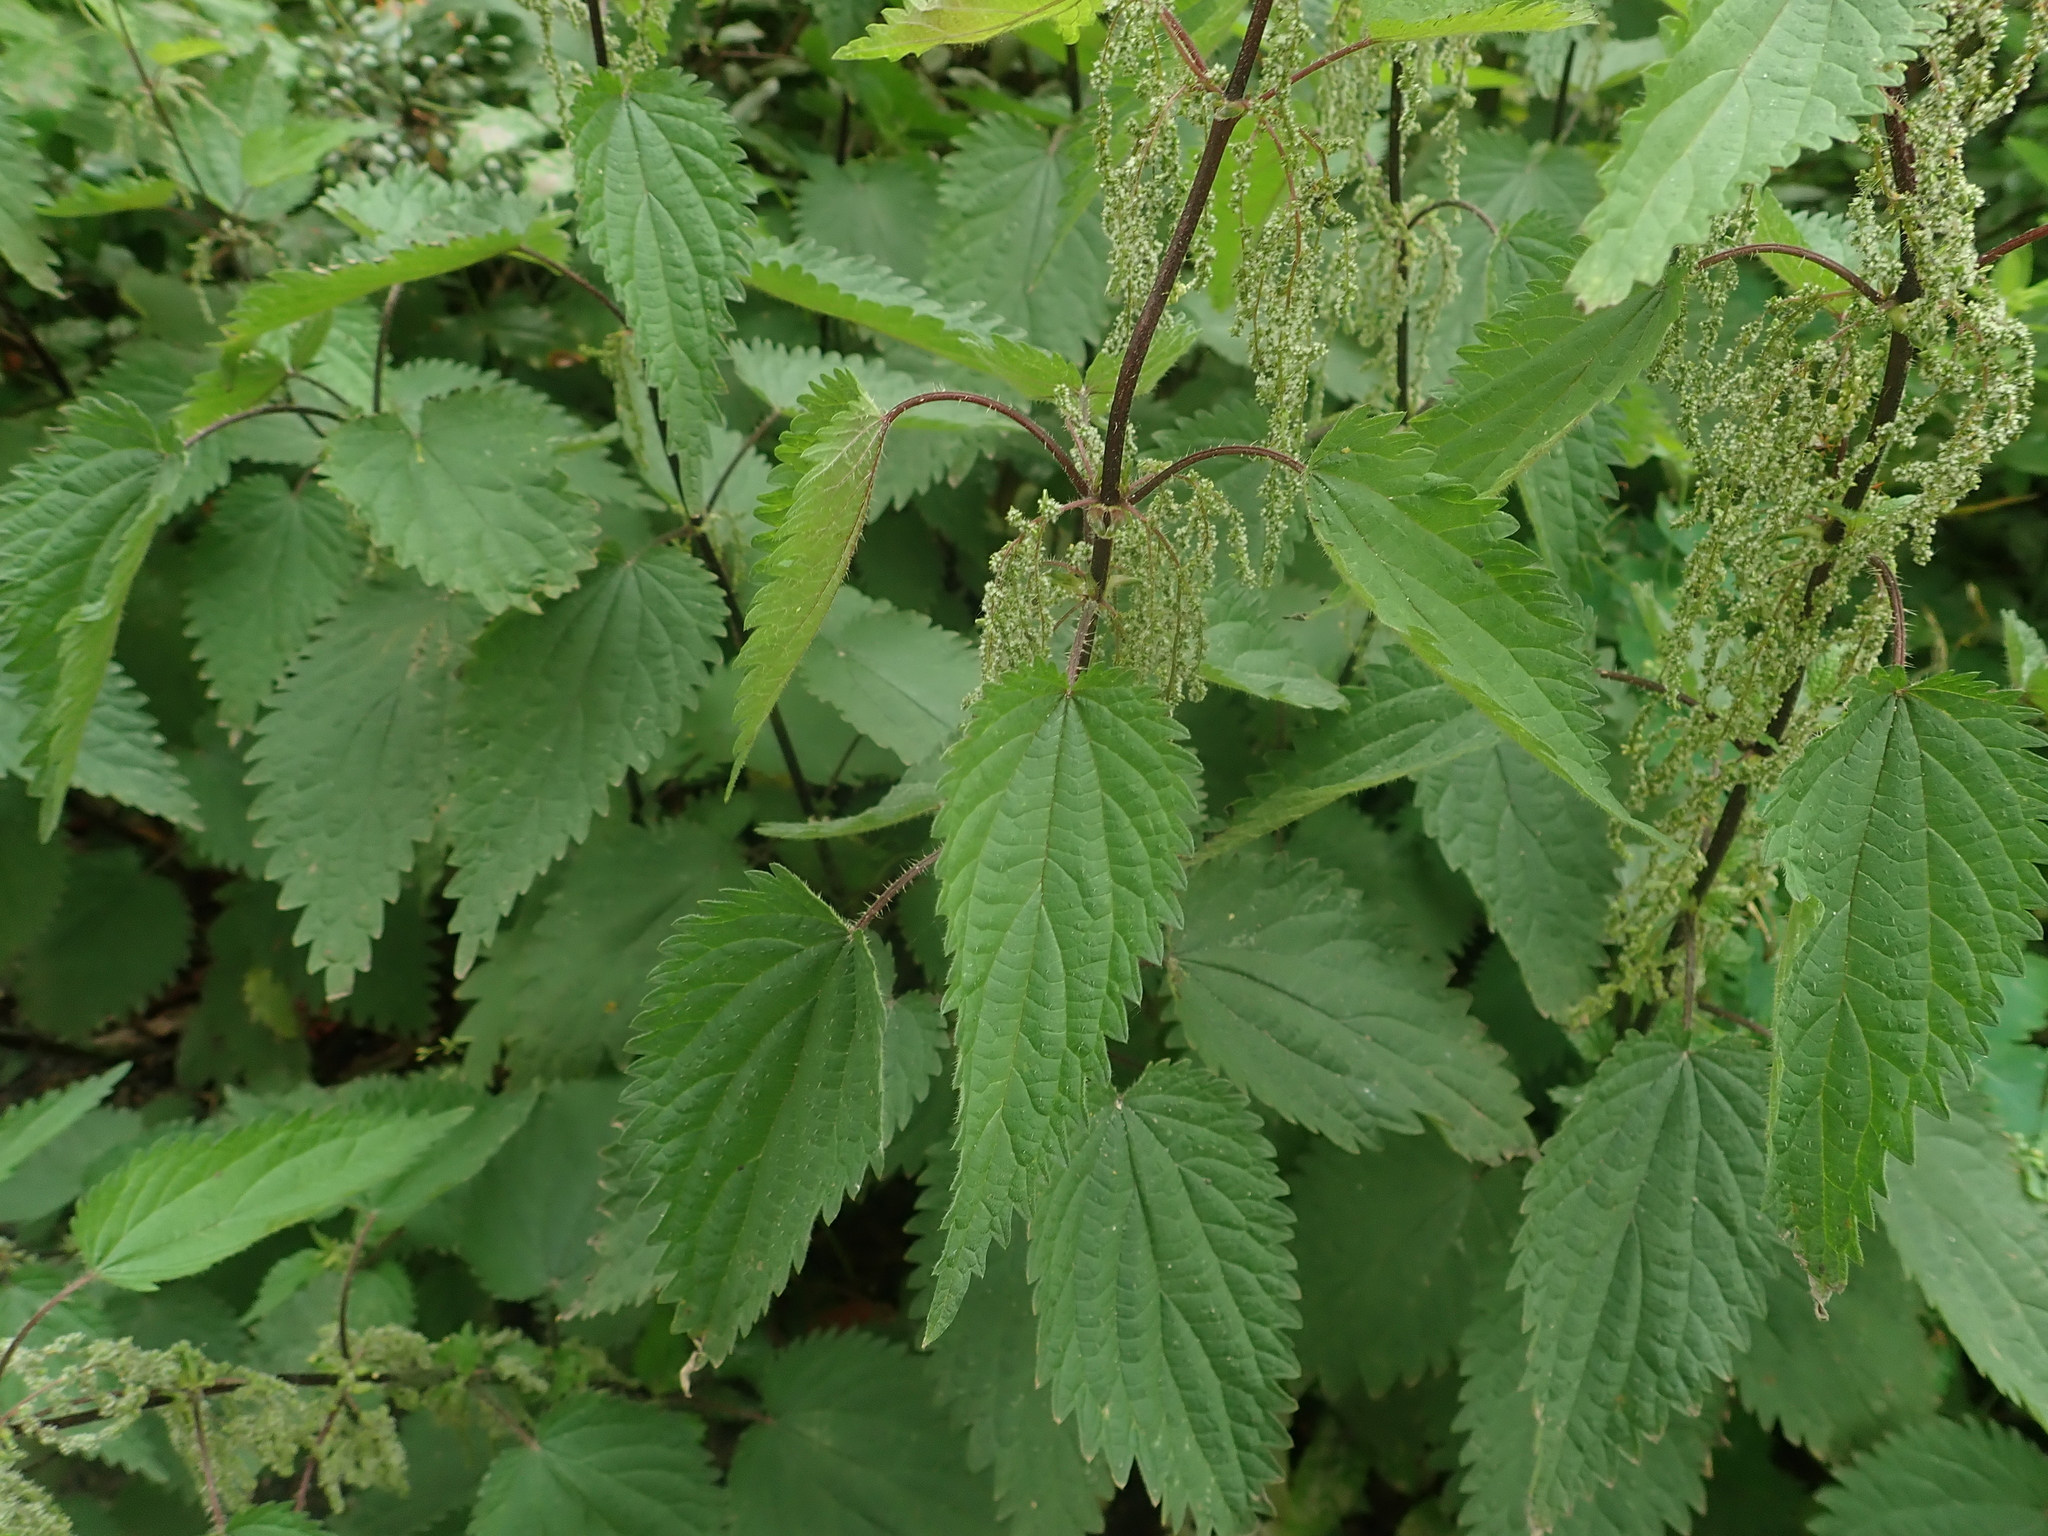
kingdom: Plantae
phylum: Tracheophyta
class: Magnoliopsida
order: Rosales
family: Urticaceae
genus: Urtica
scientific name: Urtica dioica
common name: Common nettle
